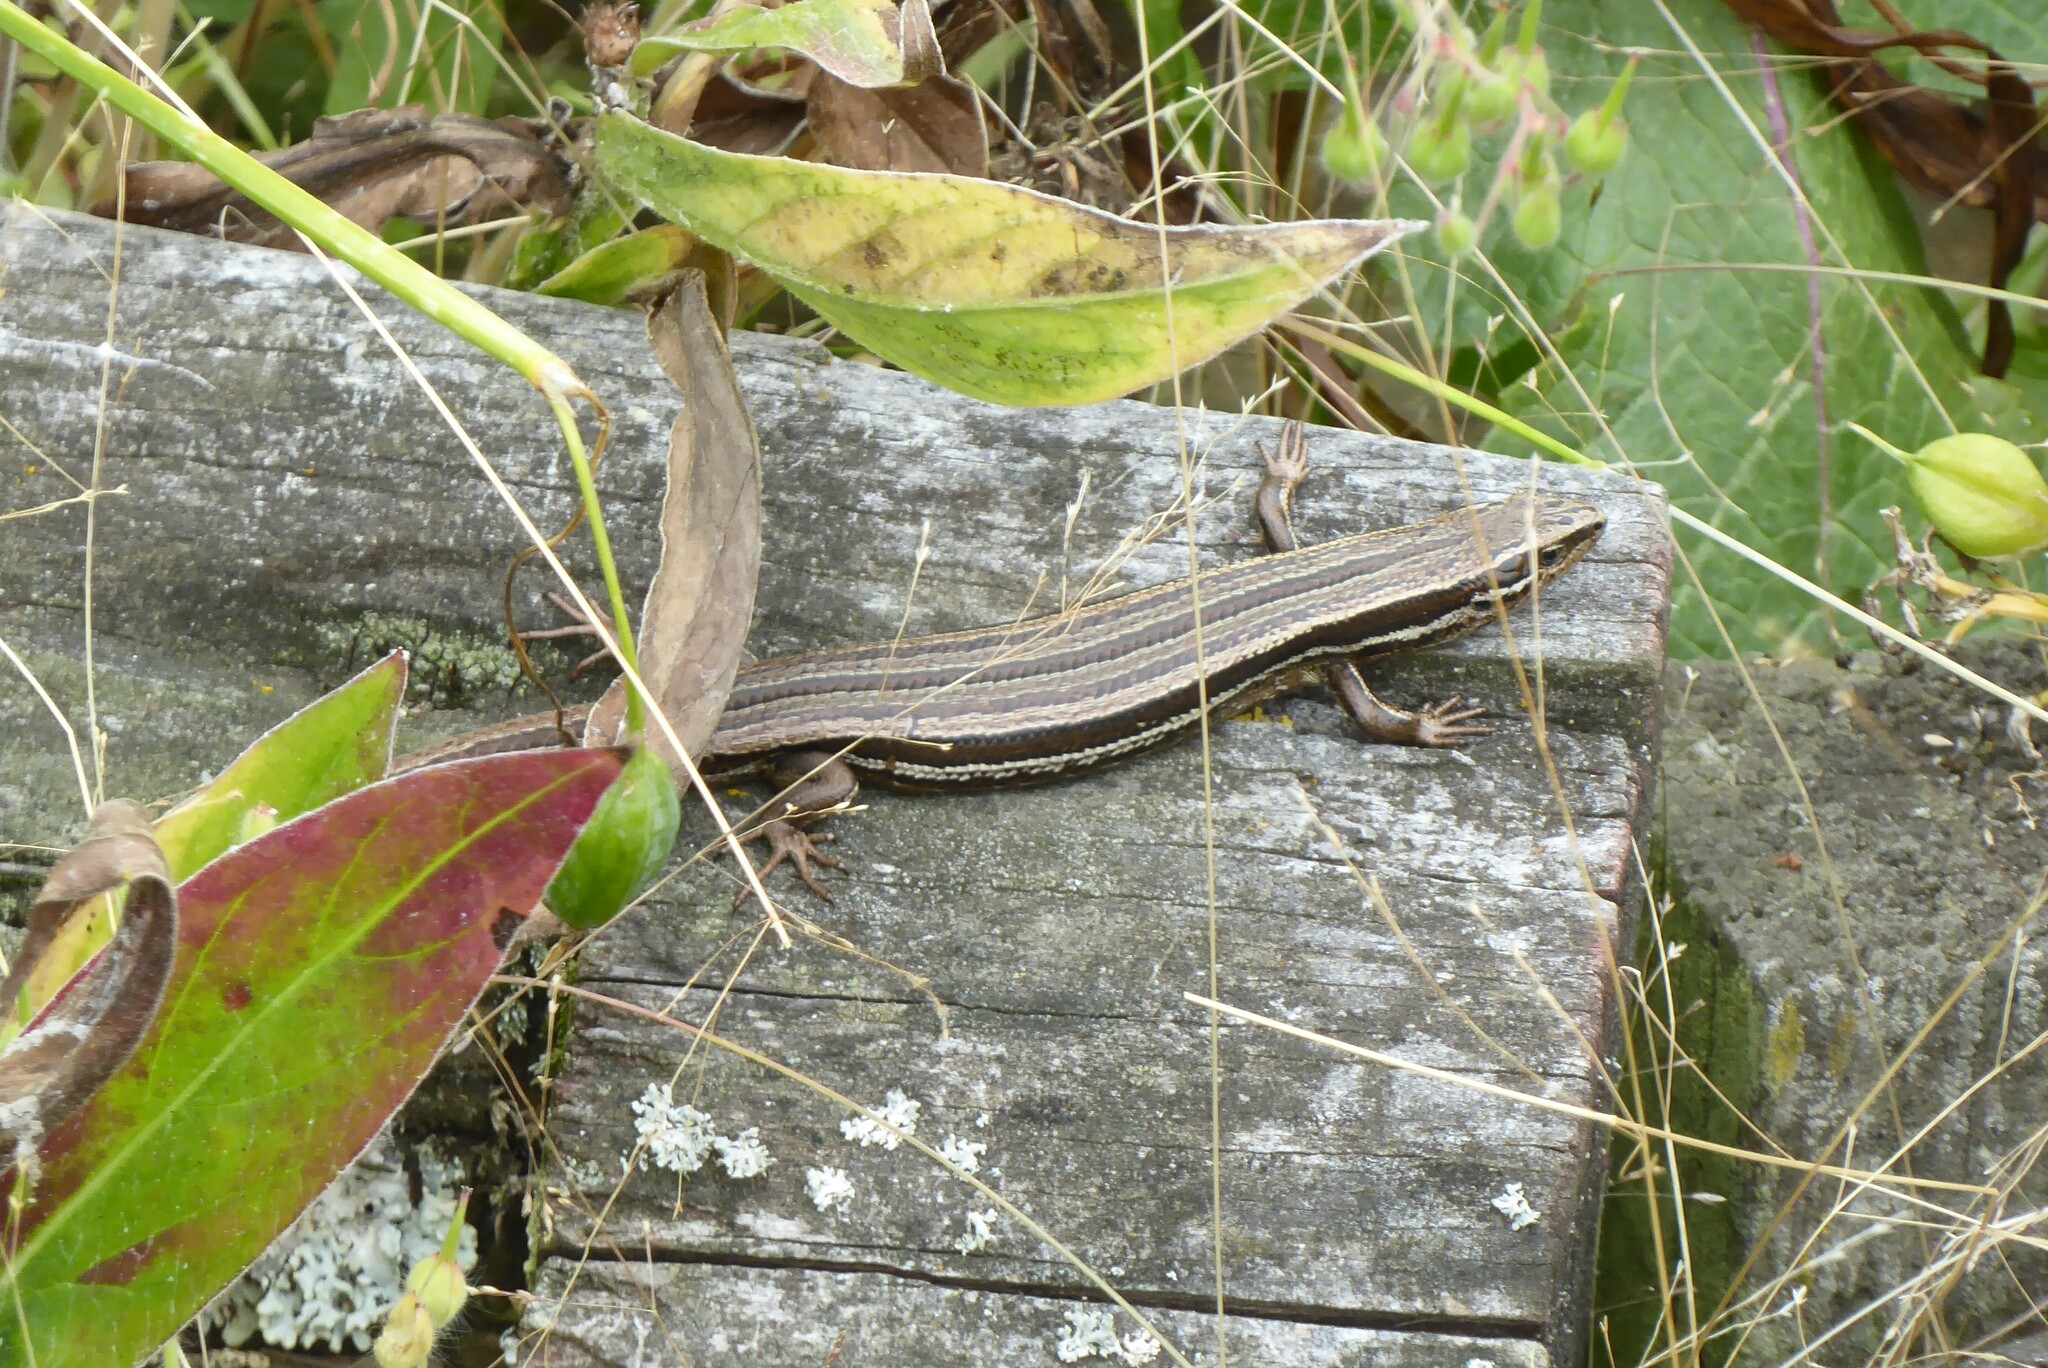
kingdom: Animalia
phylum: Chordata
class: Squamata
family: Scincidae
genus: Oligosoma
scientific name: Oligosoma polychroma
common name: Common new zealand skink
